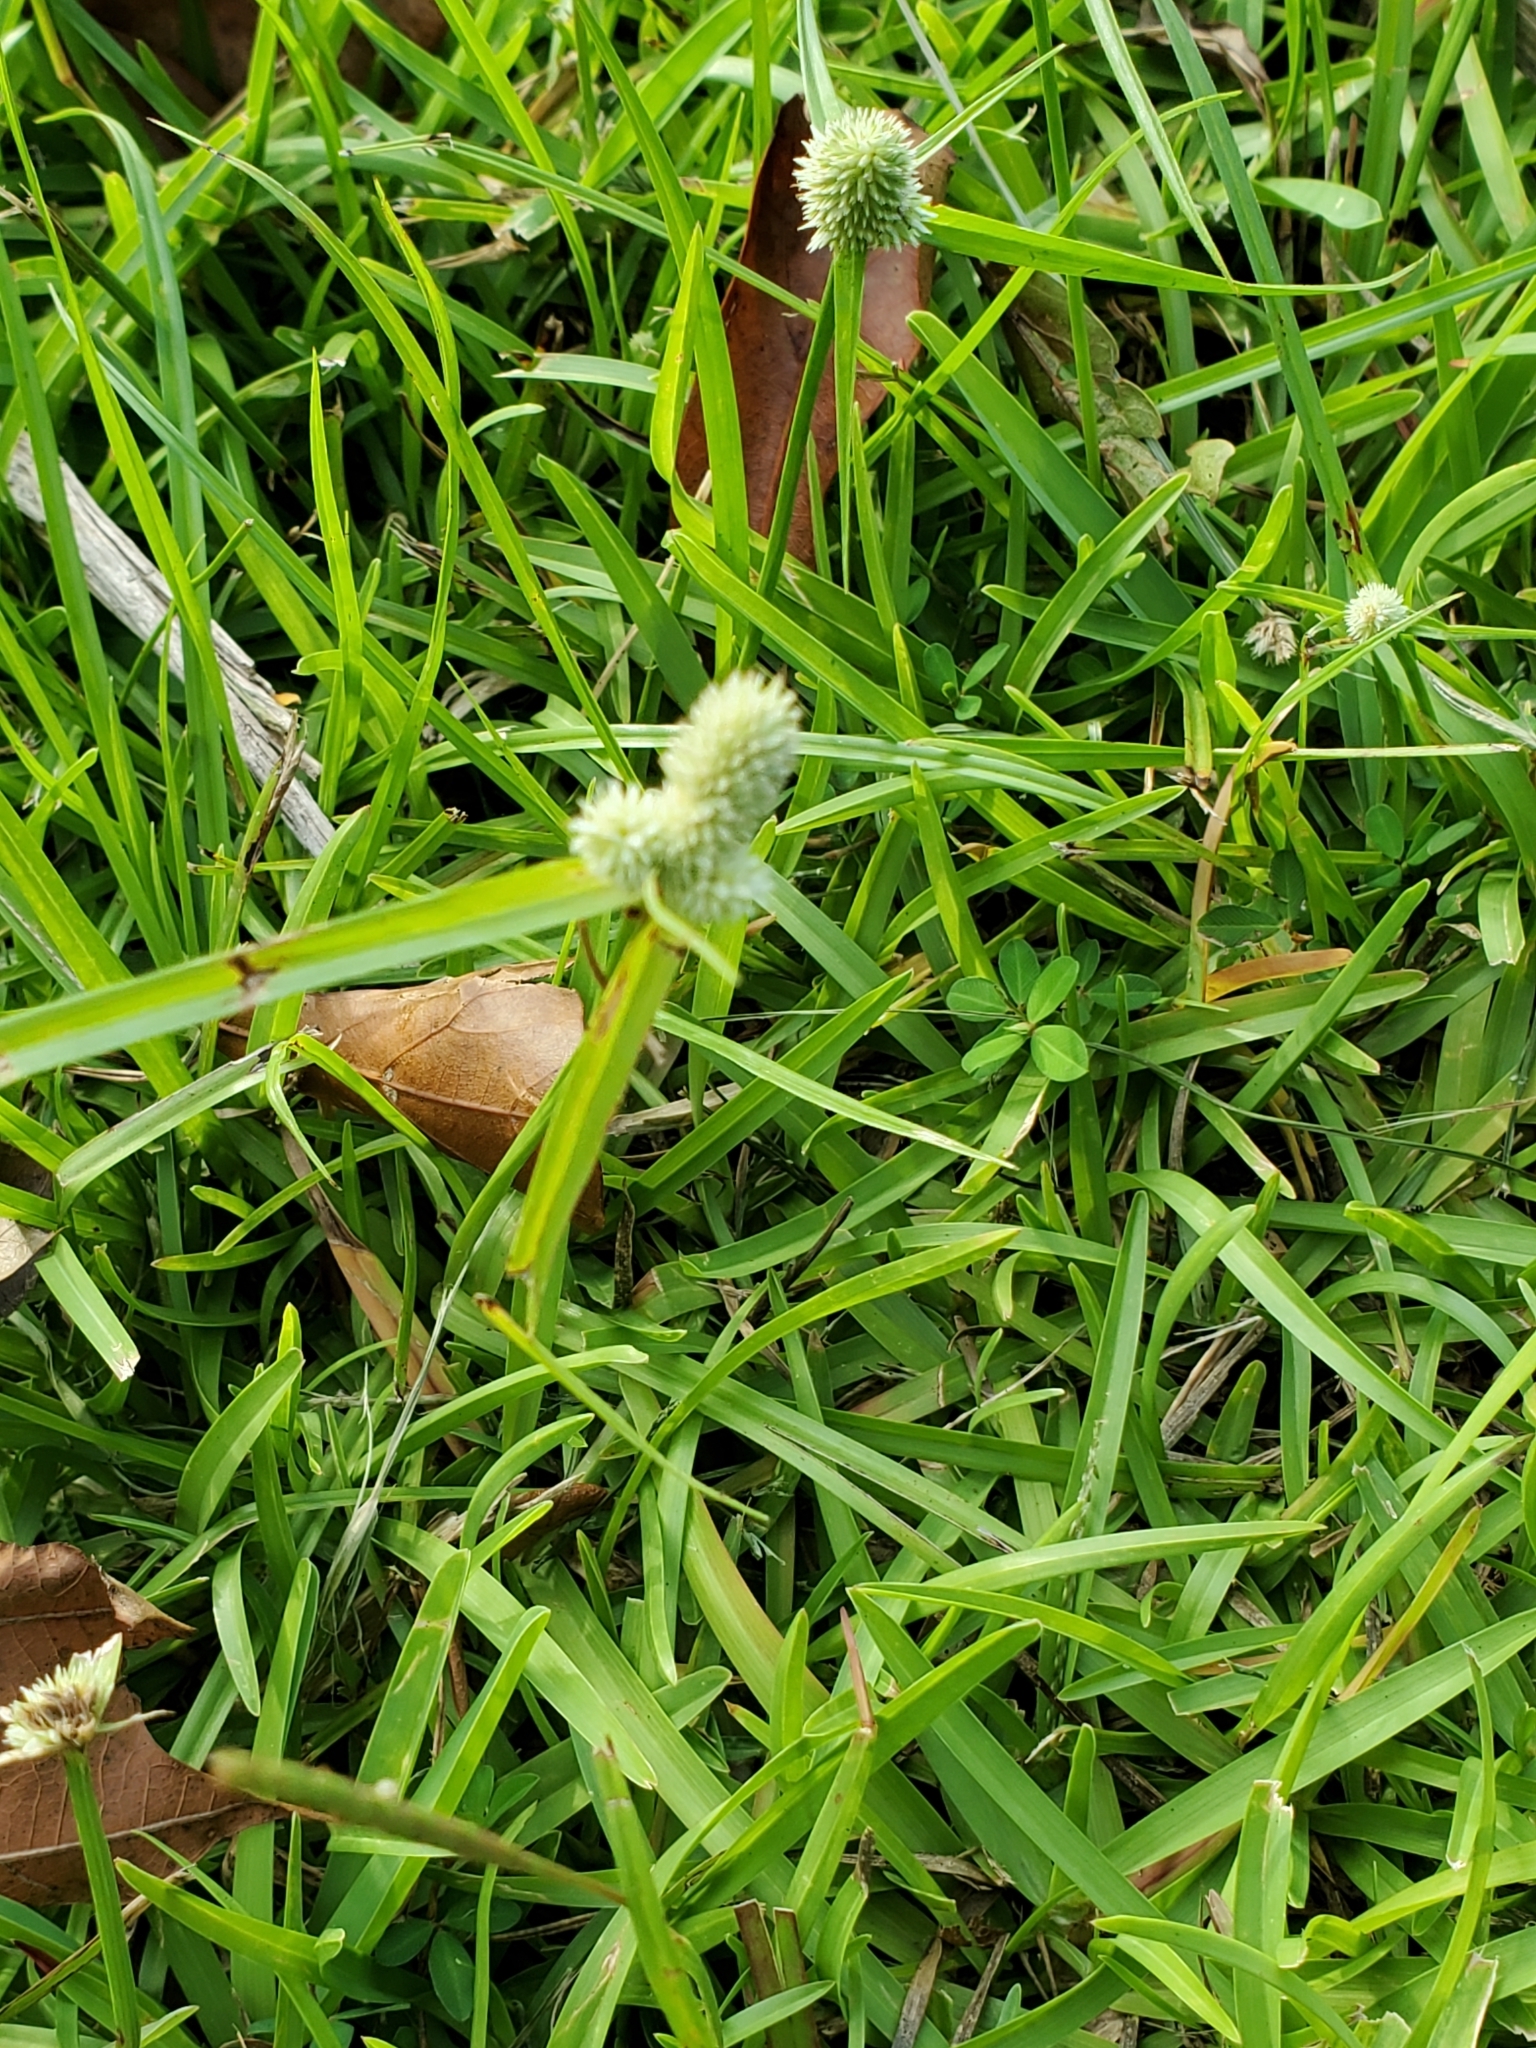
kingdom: Plantae
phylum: Tracheophyta
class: Liliopsida
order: Poales
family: Cyperaceae
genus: Cyperus
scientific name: Cyperus sesquiflorus
